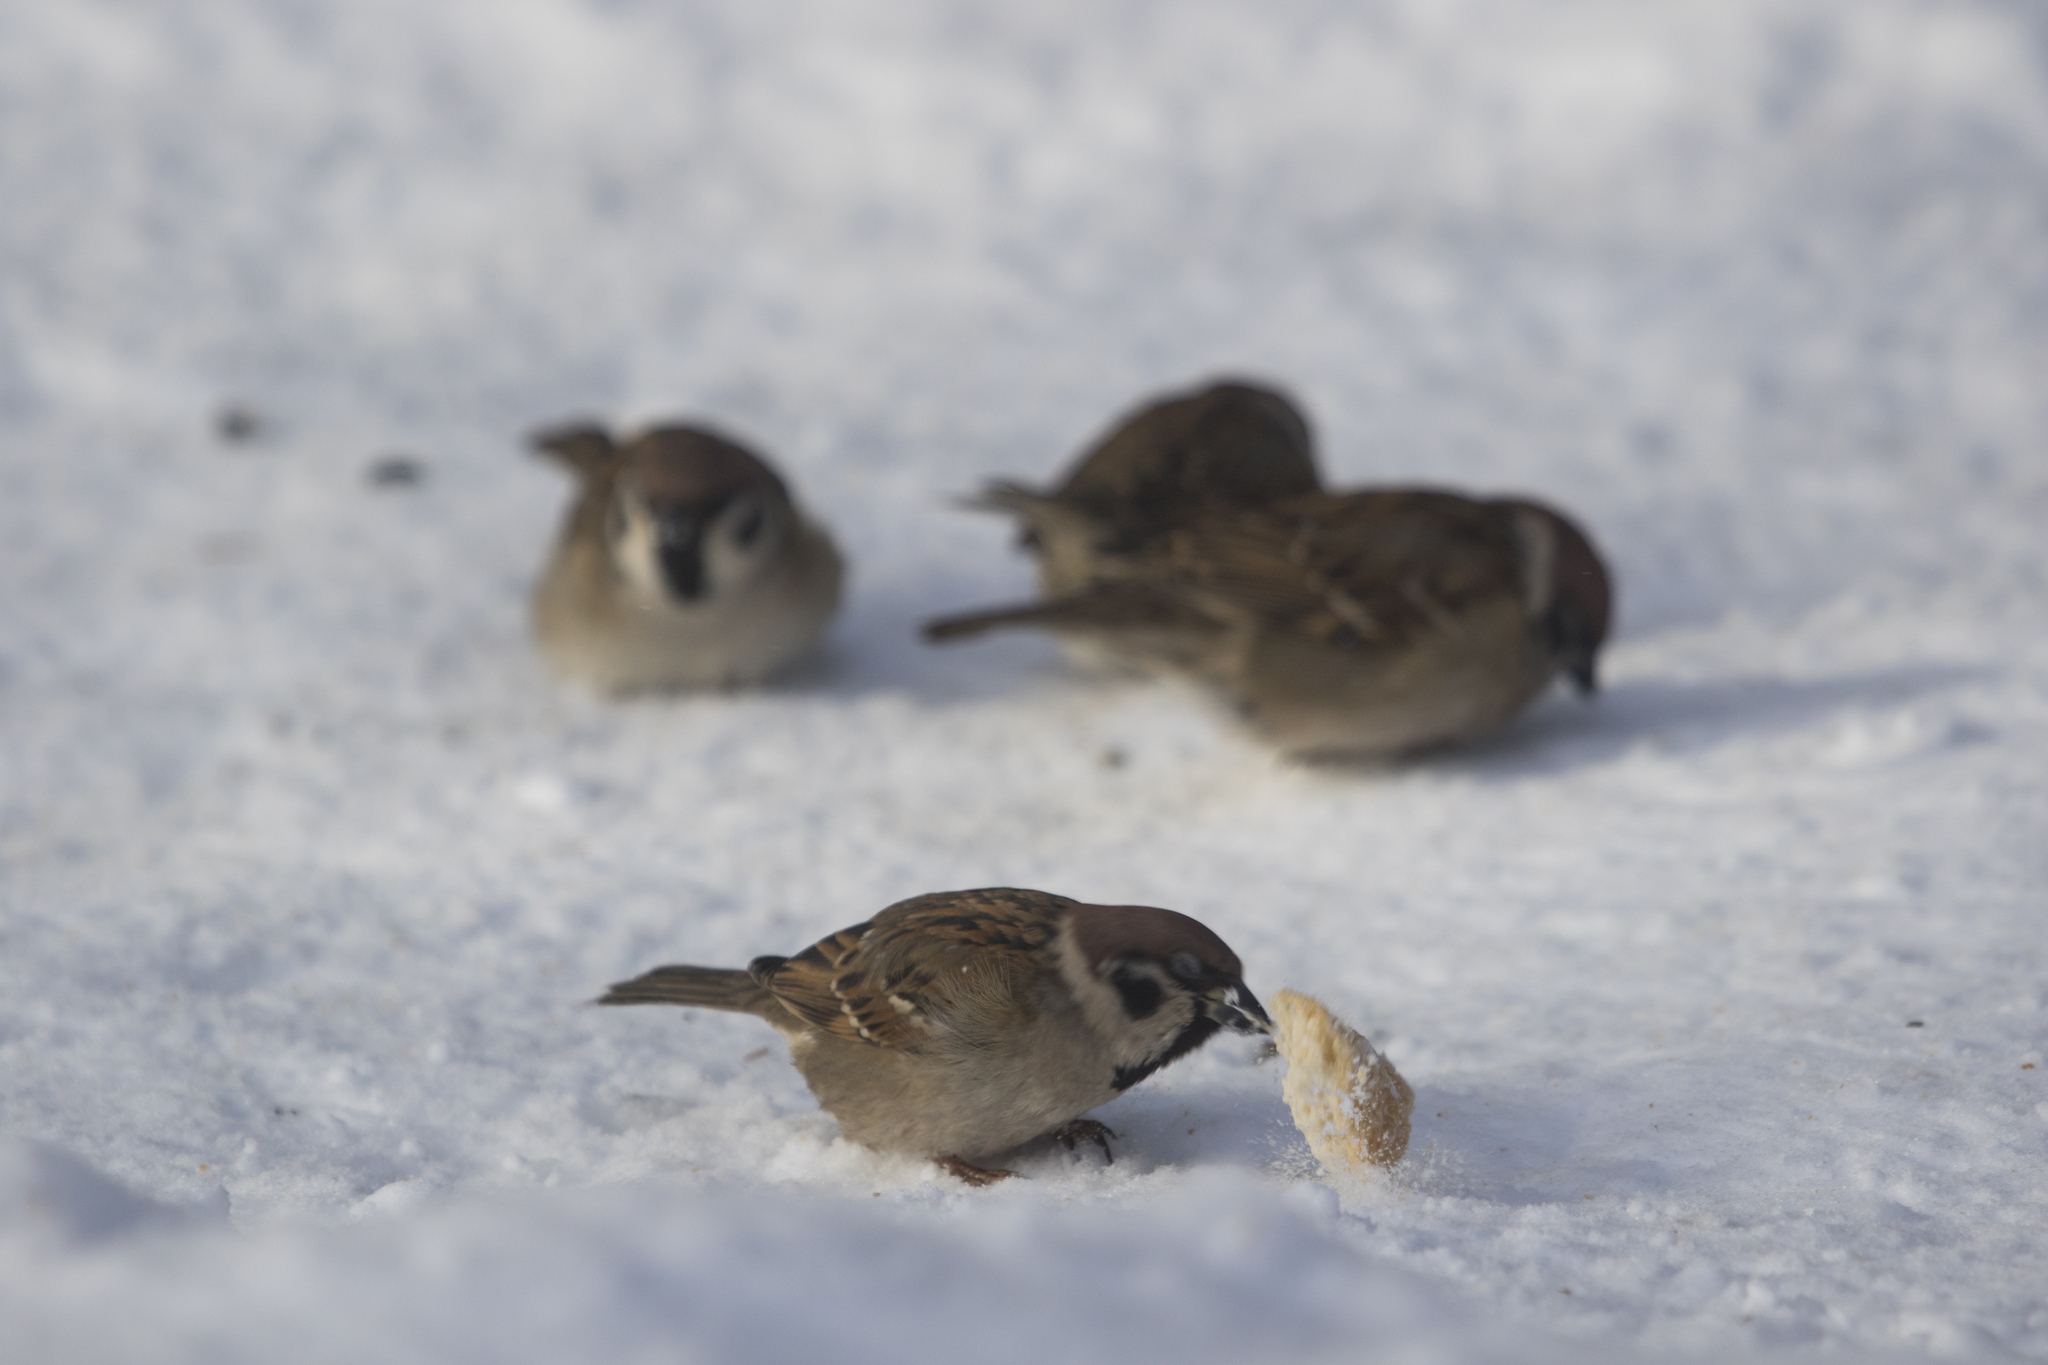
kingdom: Animalia
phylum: Chordata
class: Aves
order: Passeriformes
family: Passeridae
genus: Passer
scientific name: Passer montanus
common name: Eurasian tree sparrow
